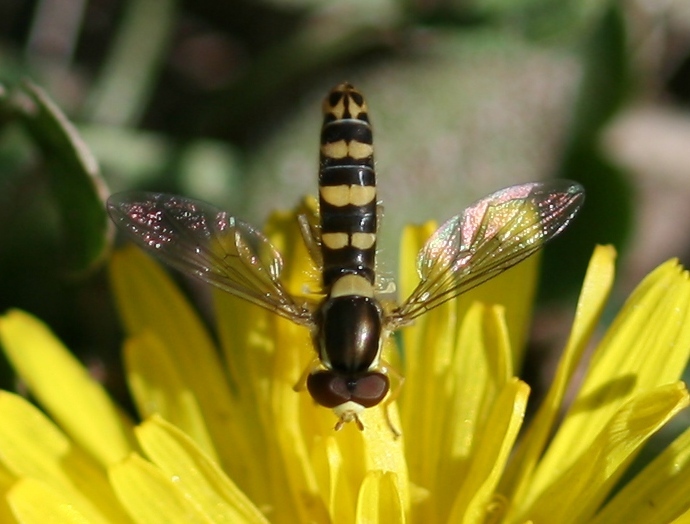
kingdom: Animalia
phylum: Arthropoda
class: Insecta
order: Diptera
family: Syrphidae
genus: Sphaerophoria
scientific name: Sphaerophoria
